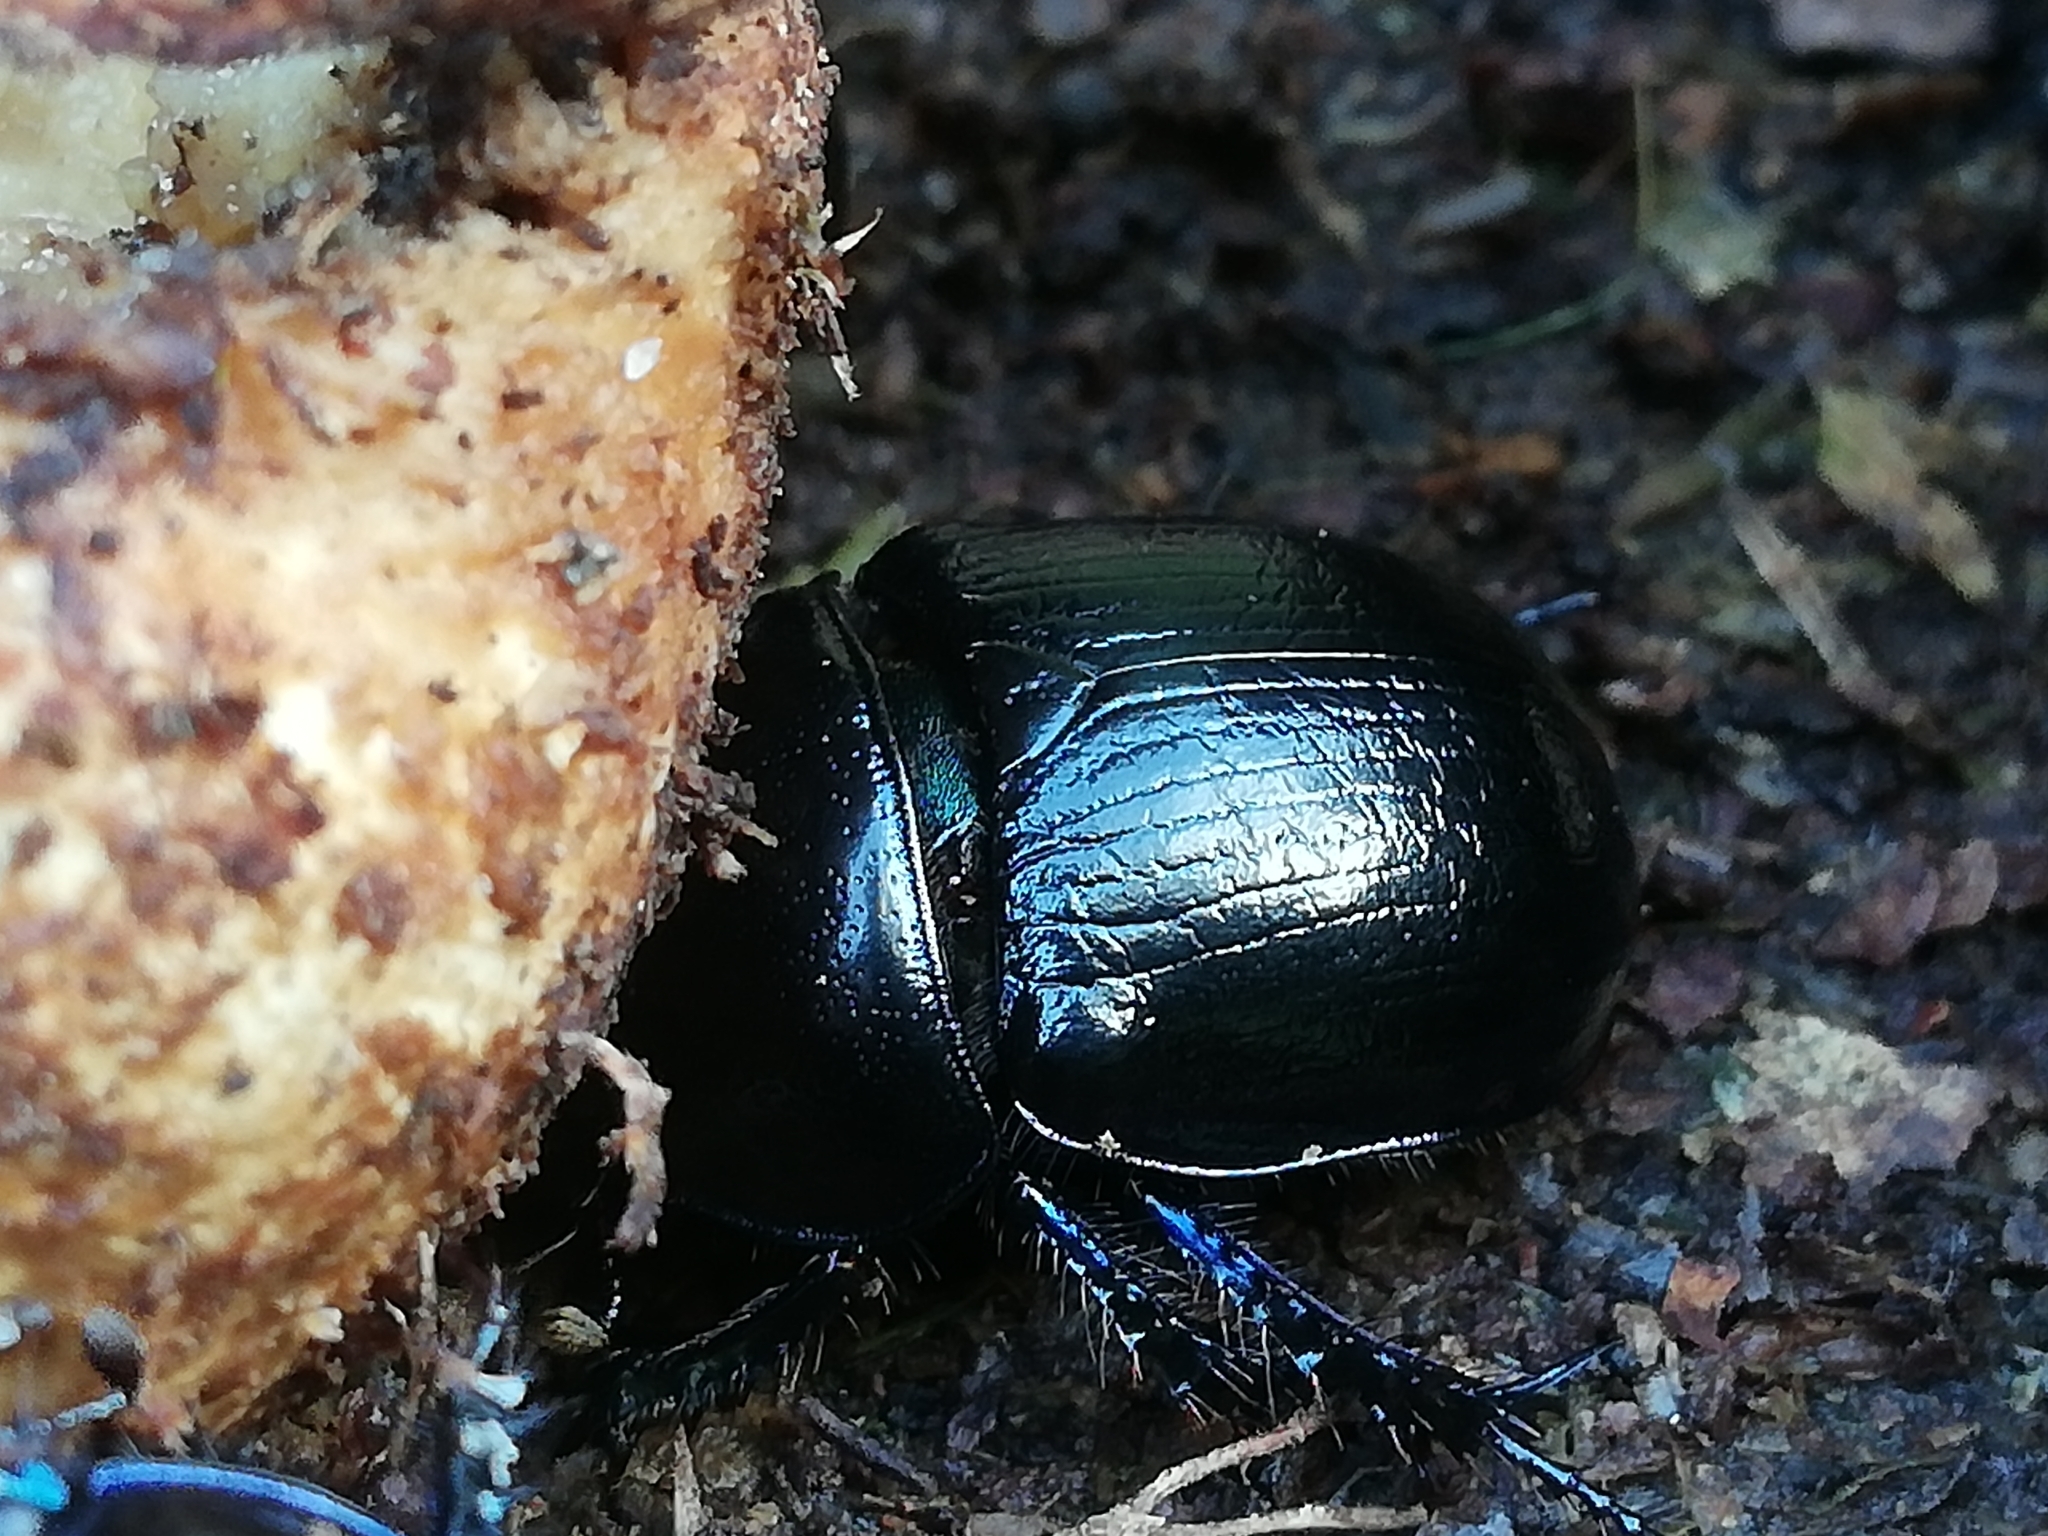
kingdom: Animalia
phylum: Arthropoda
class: Insecta
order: Coleoptera
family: Geotrupidae
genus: Anoplotrupes
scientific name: Anoplotrupes stercorosus
